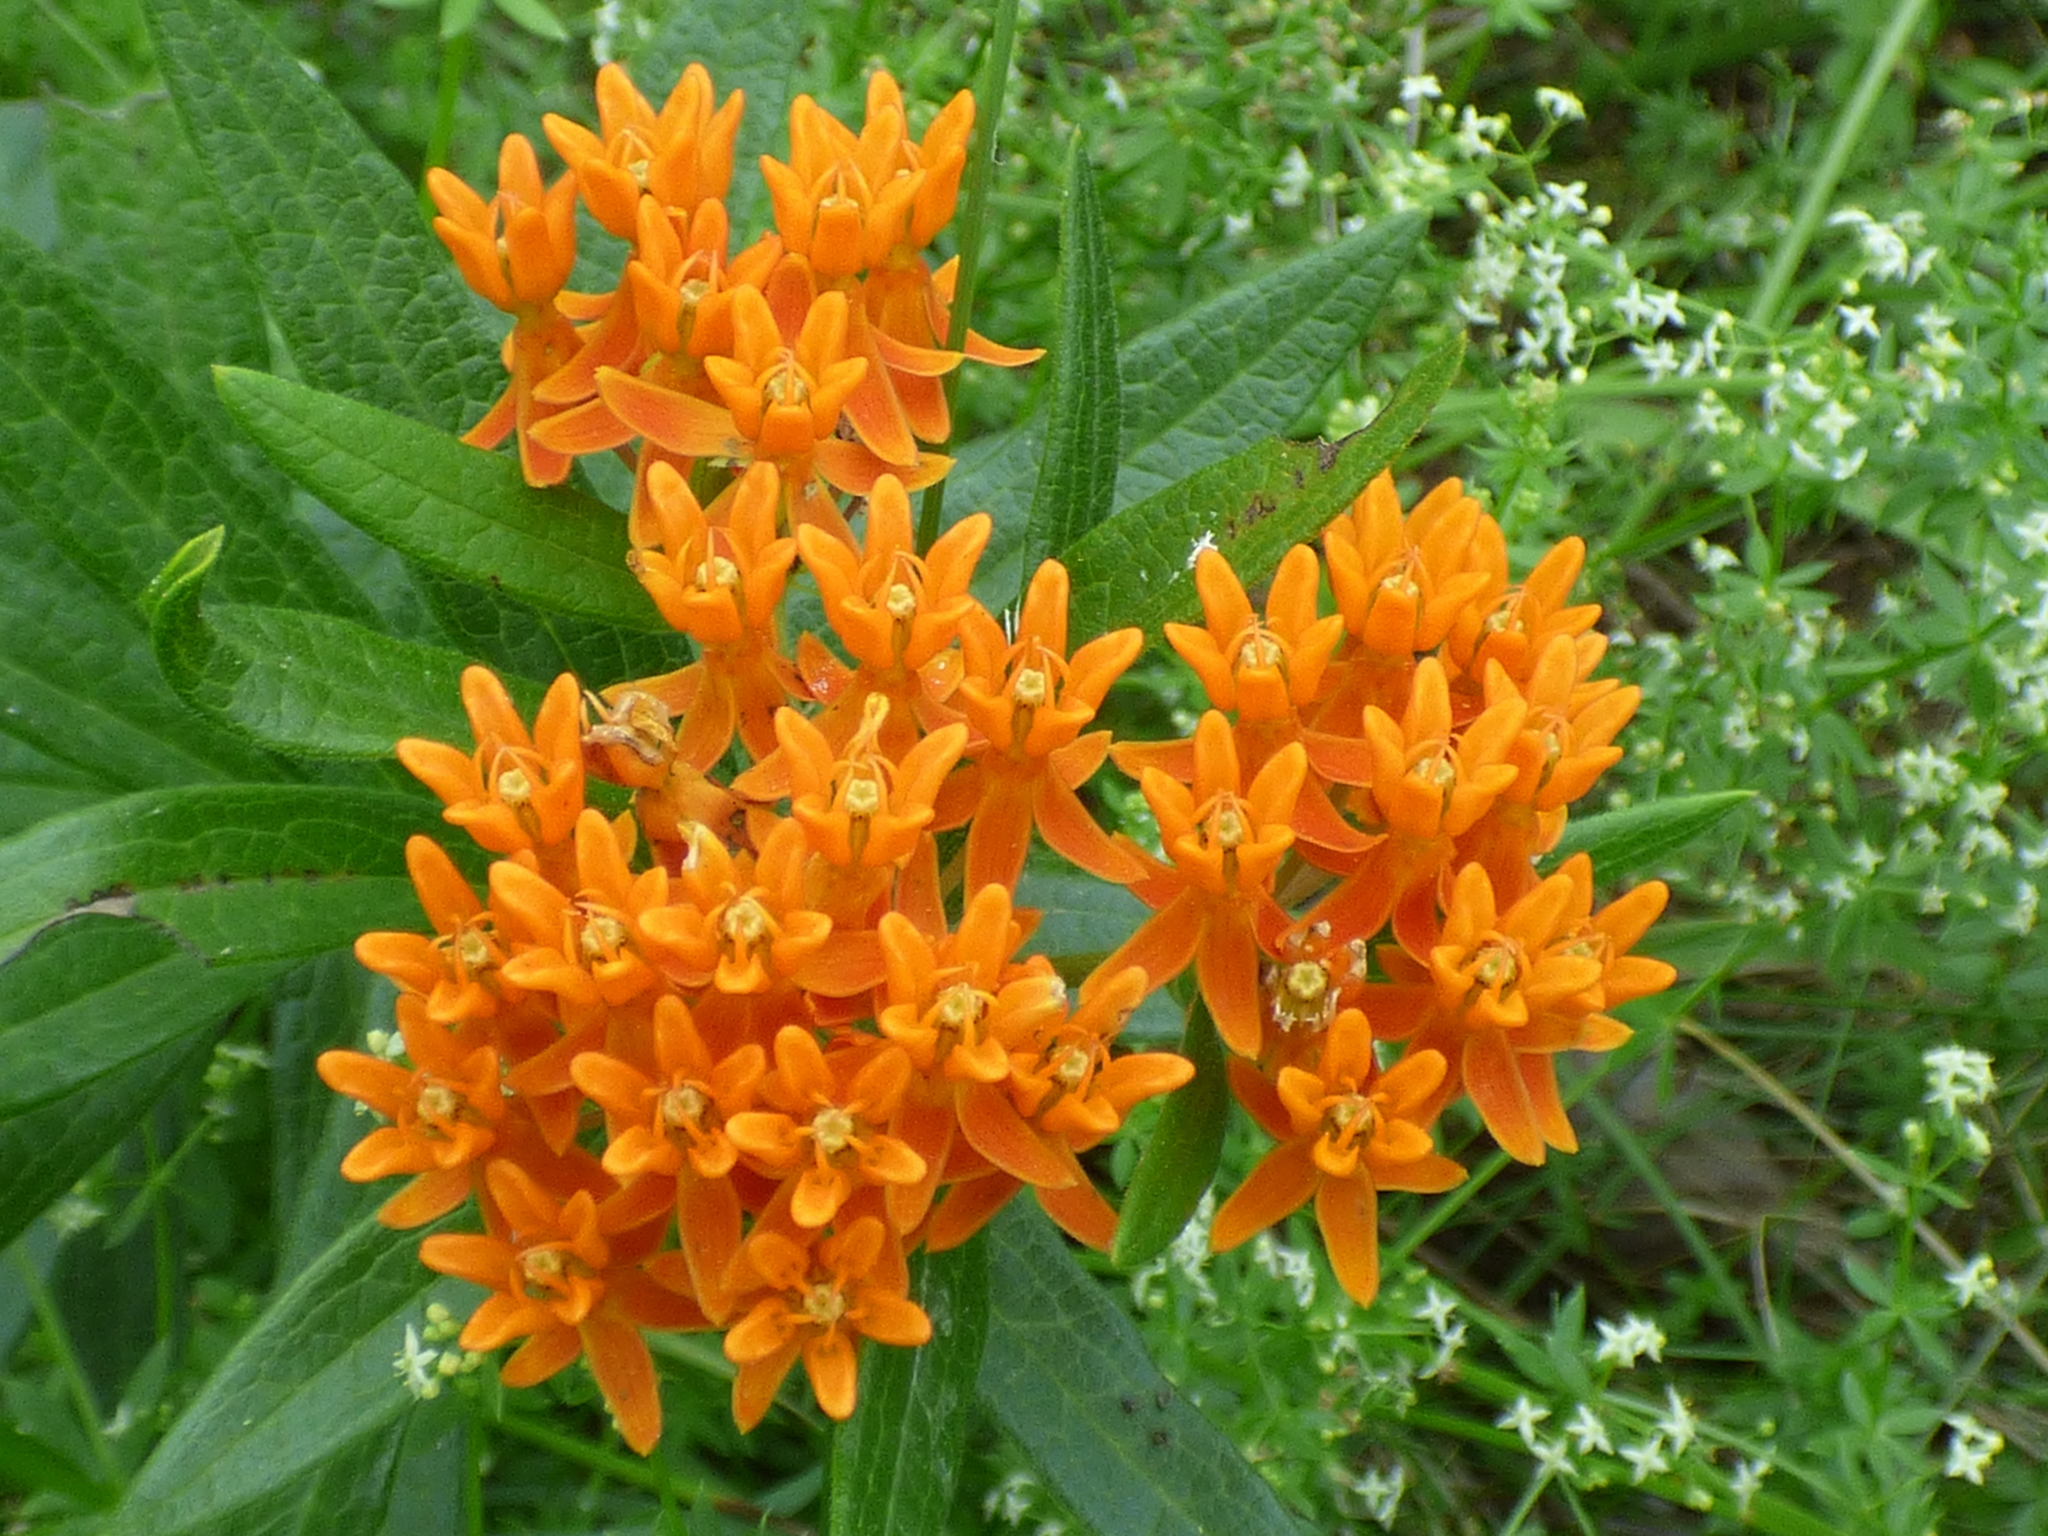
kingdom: Plantae
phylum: Tracheophyta
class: Magnoliopsida
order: Gentianales
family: Apocynaceae
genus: Asclepias
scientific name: Asclepias tuberosa
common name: Butterfly milkweed
